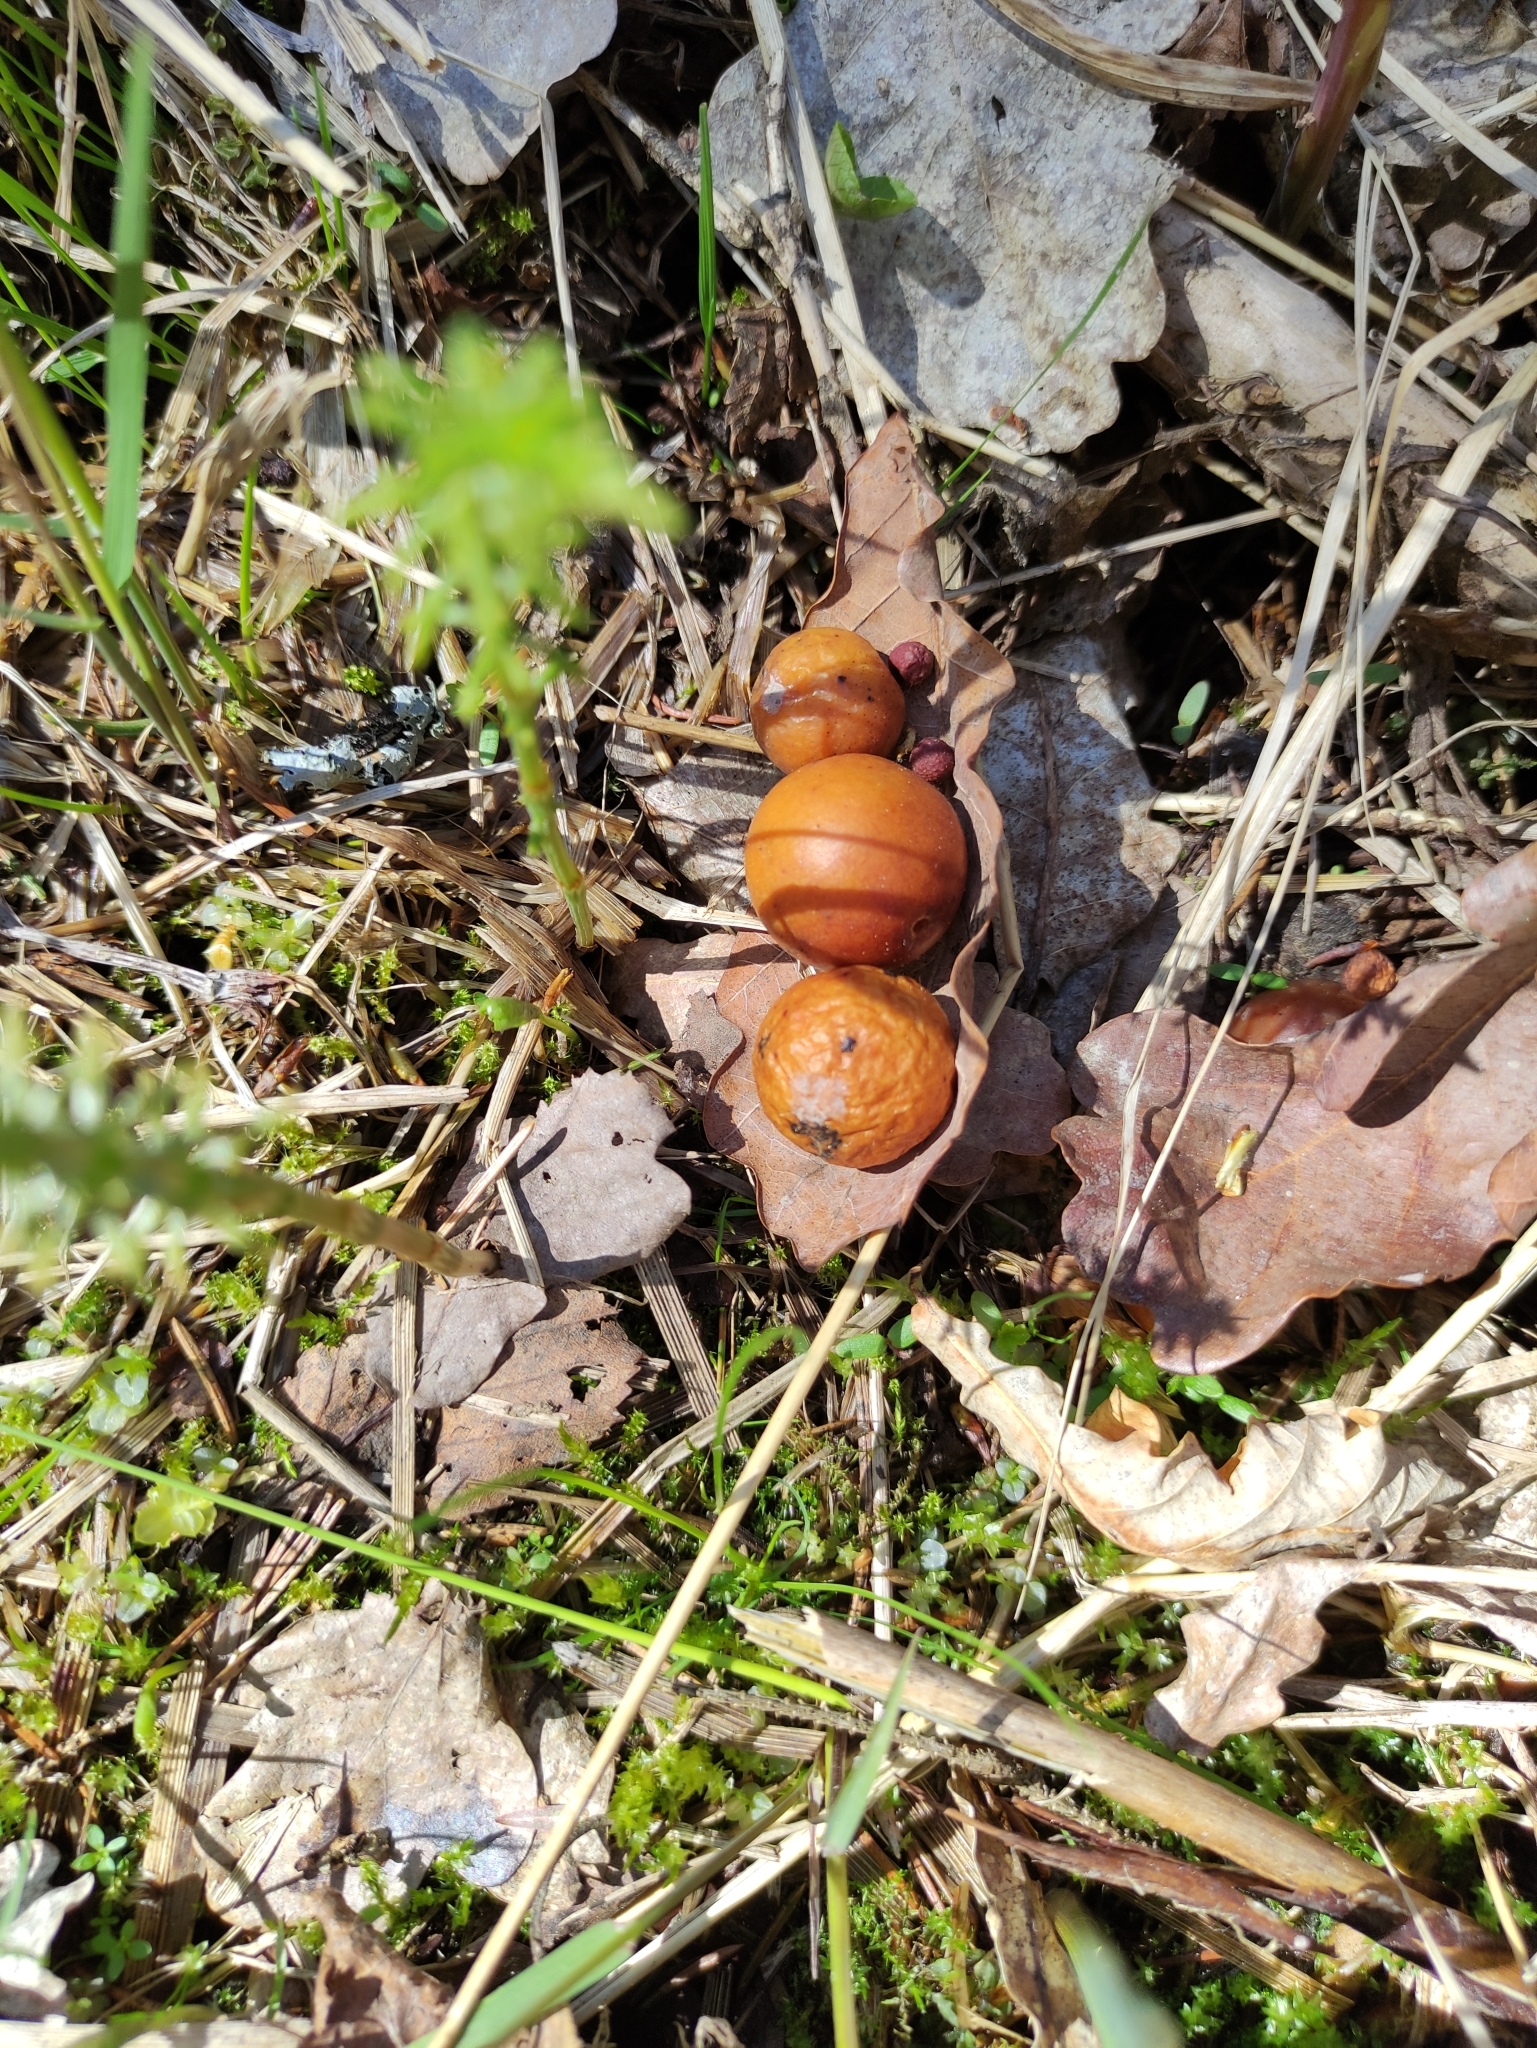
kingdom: Animalia
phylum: Arthropoda
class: Insecta
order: Hymenoptera
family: Cynipidae
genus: Cynips
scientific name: Cynips quercusfolii
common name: Cherry gall
